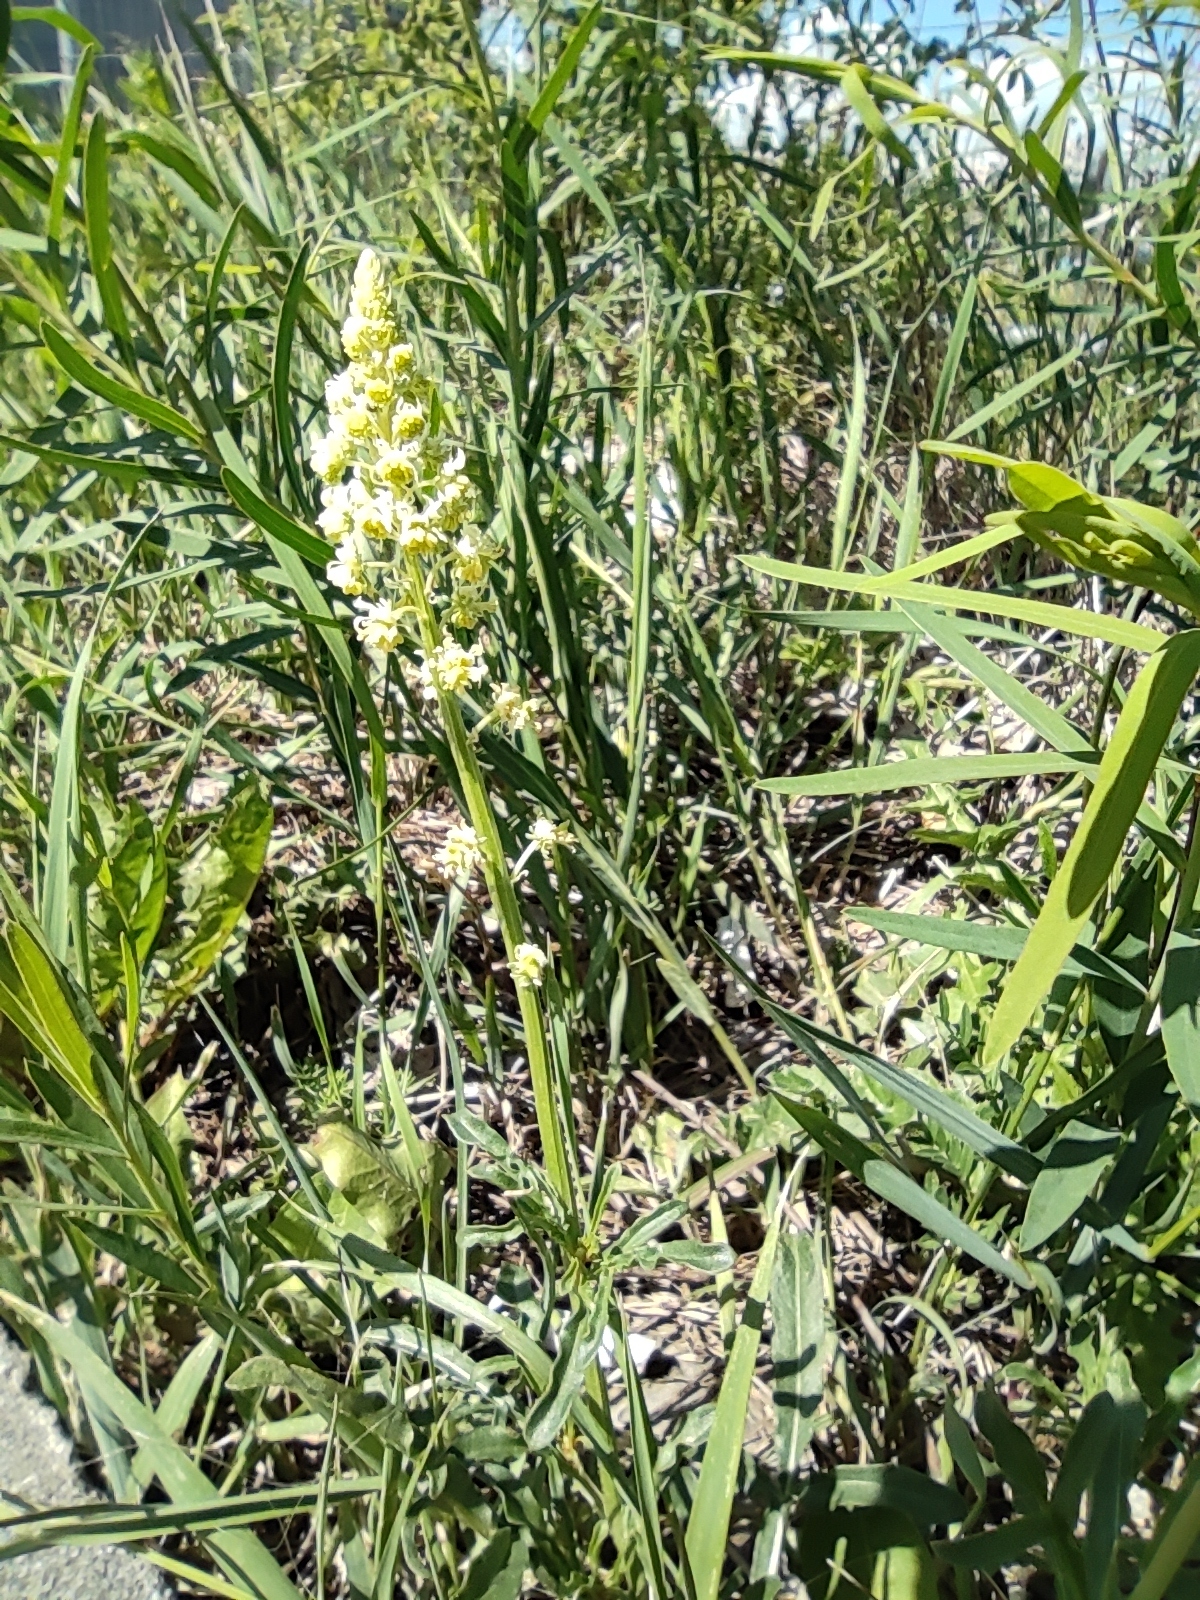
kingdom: Plantae
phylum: Tracheophyta
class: Magnoliopsida
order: Brassicales
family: Resedaceae
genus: Reseda
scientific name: Reseda lutea
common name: Wild mignonette
